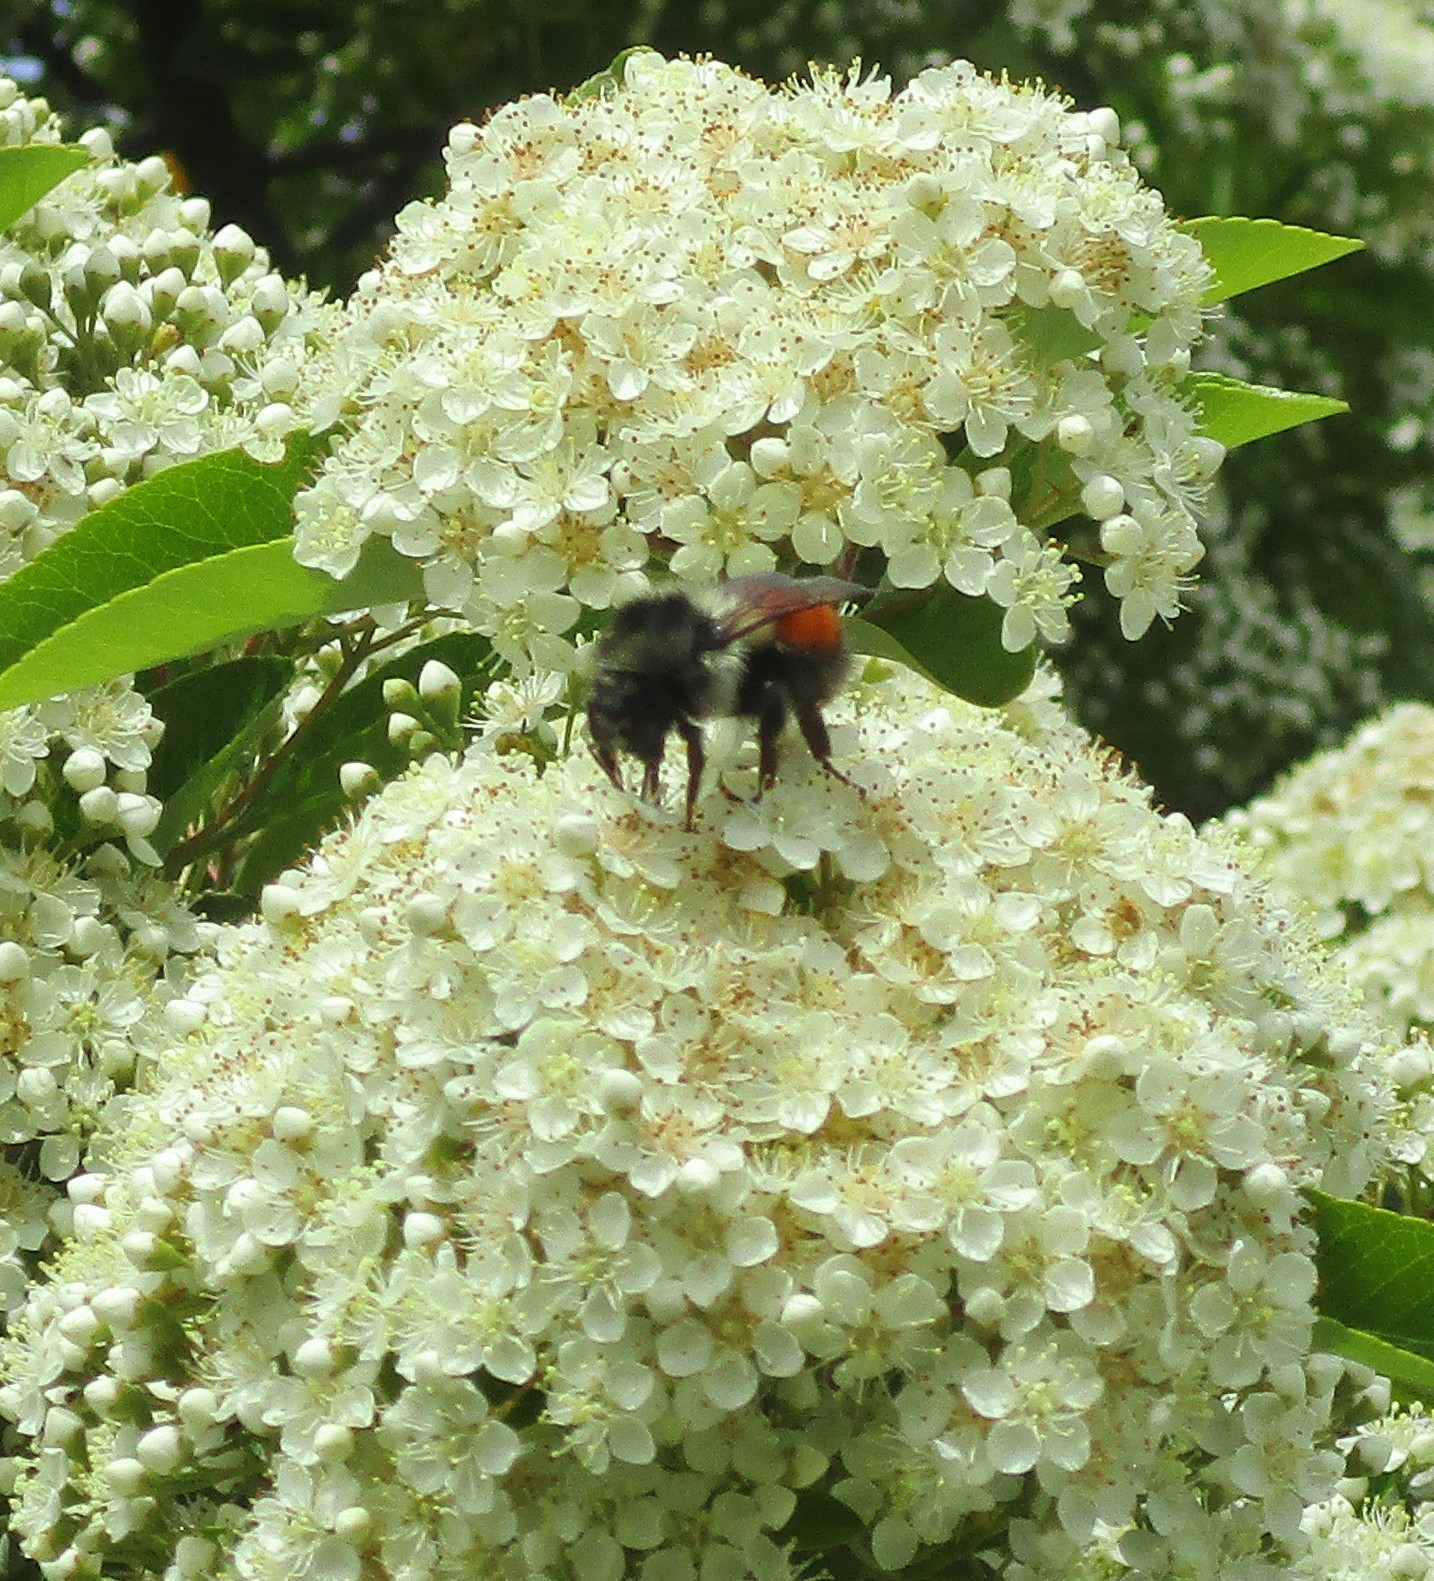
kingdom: Animalia
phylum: Arthropoda
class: Insecta
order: Hymenoptera
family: Apidae
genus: Bombus
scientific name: Bombus melanopygus
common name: Black tail bumble bee
